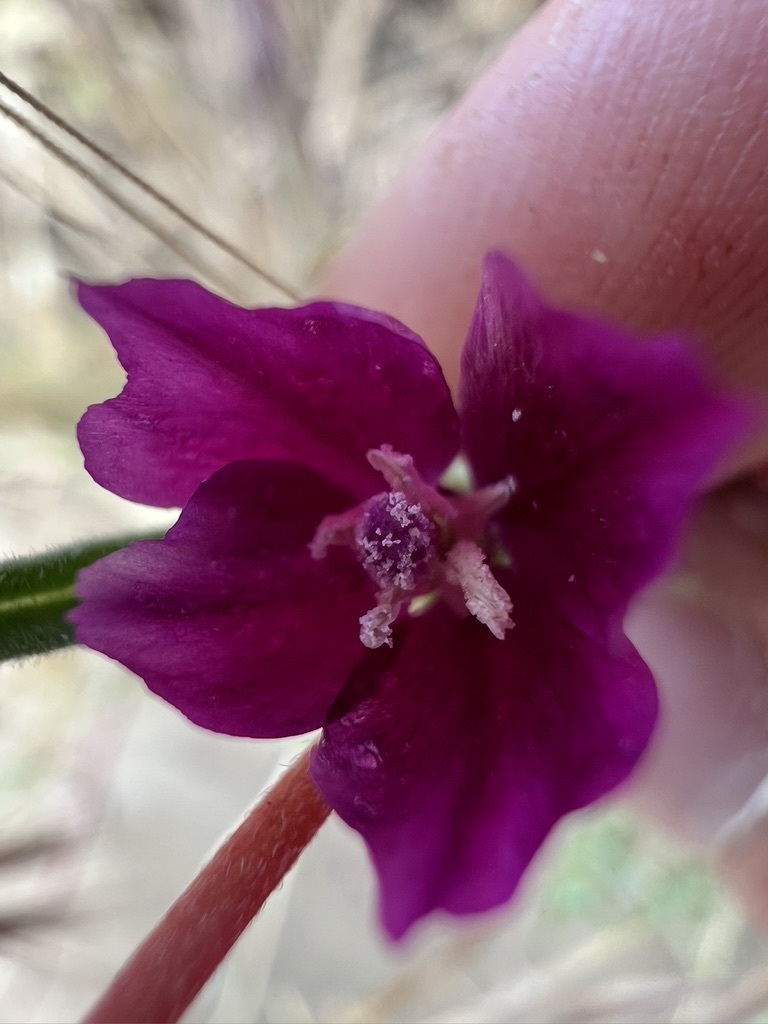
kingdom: Plantae
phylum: Tracheophyta
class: Magnoliopsida
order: Myrtales
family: Onagraceae
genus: Clarkia
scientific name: Clarkia purpurea
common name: Purple clarkia
